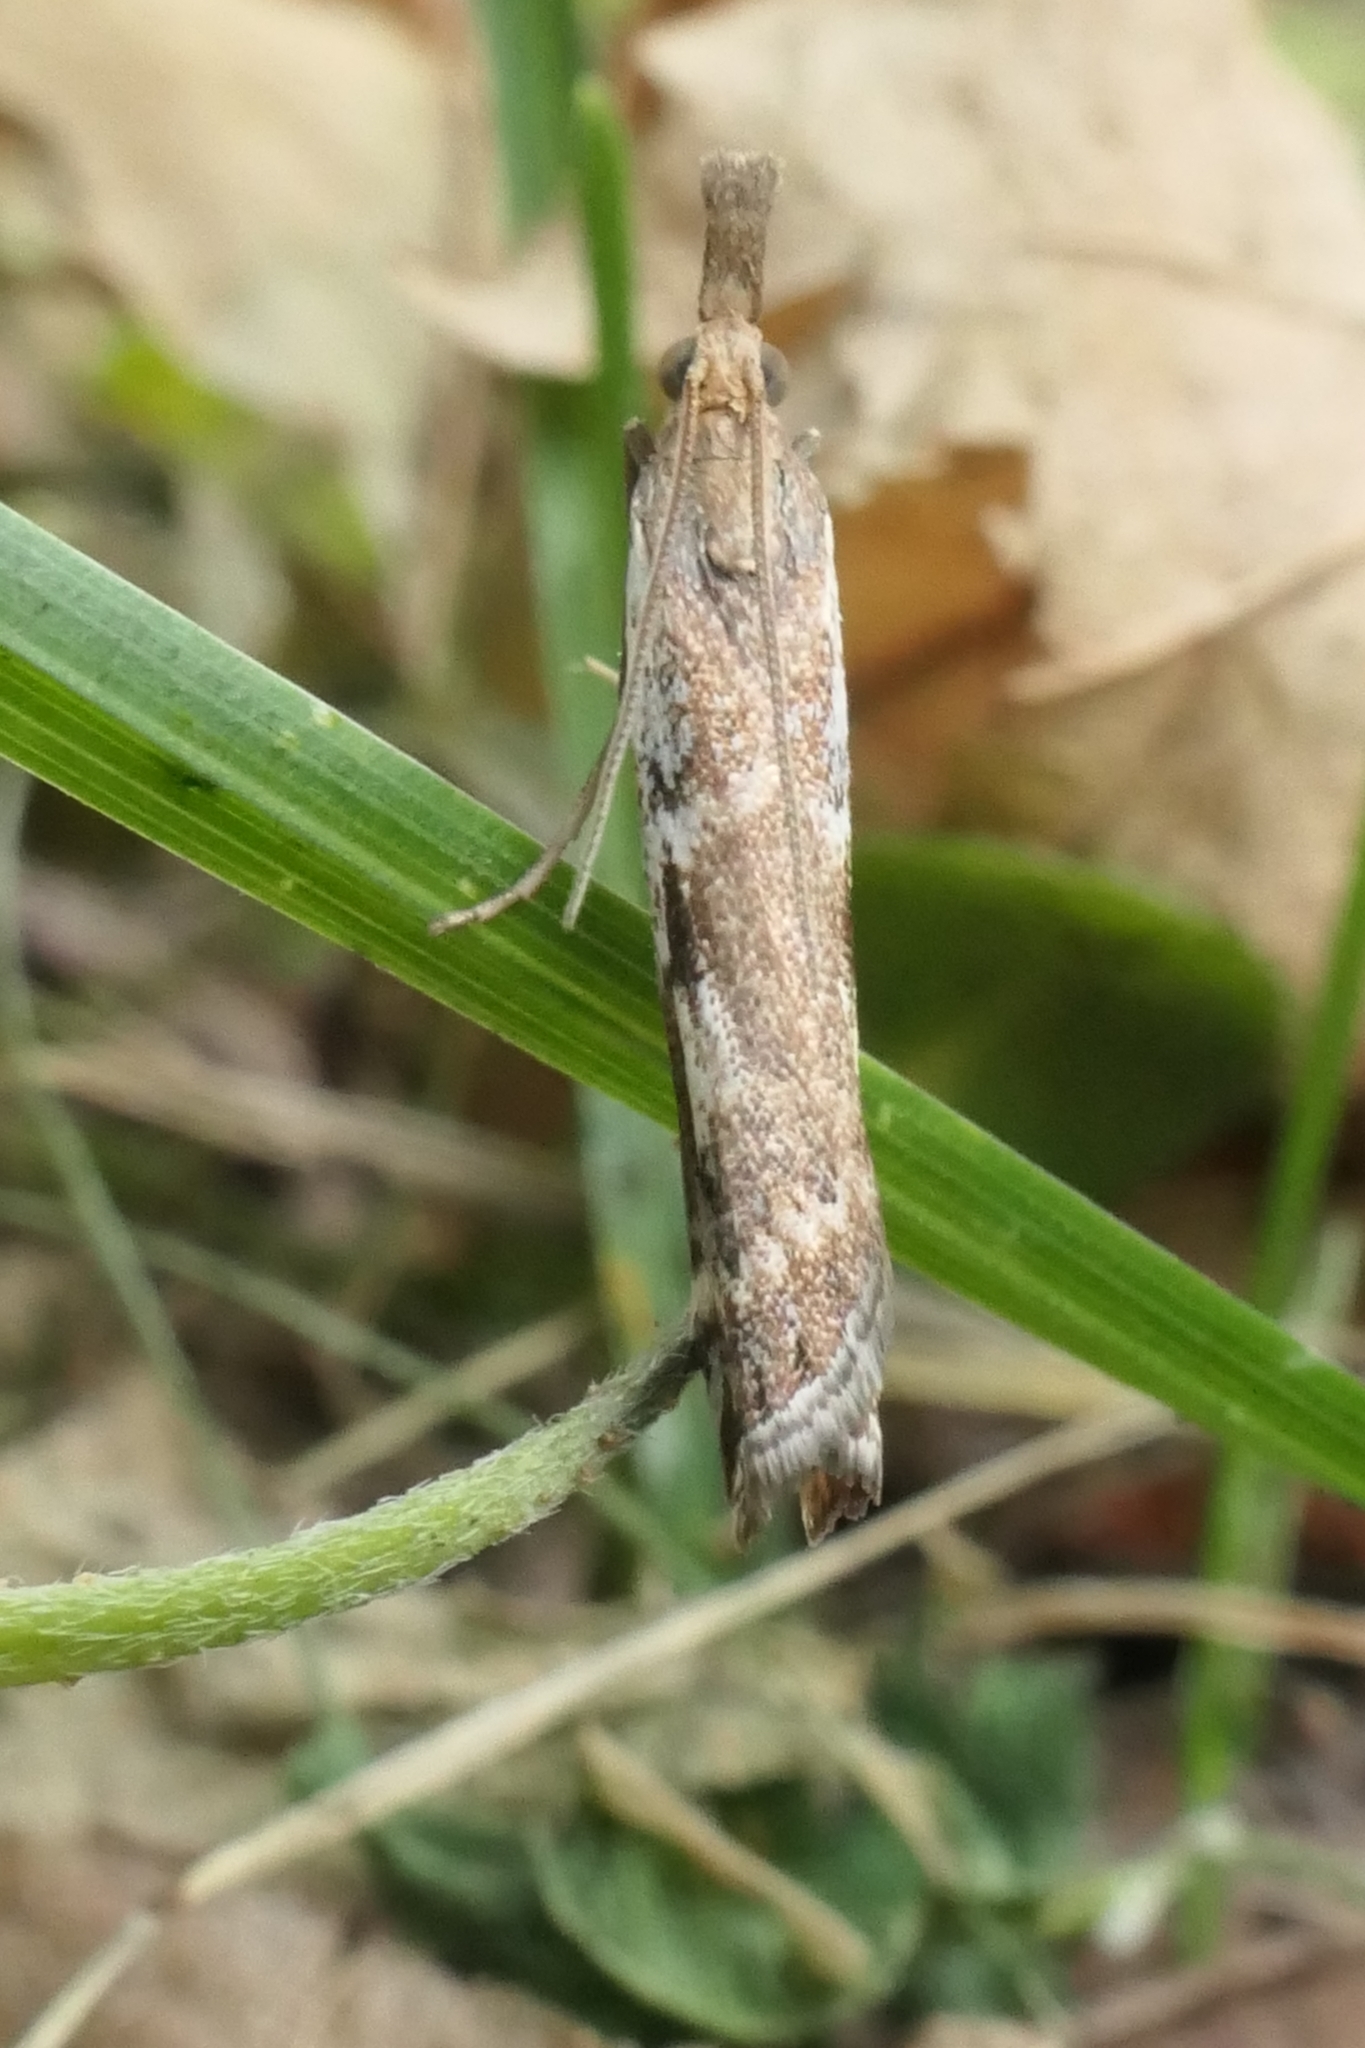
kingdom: Animalia
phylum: Arthropoda
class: Insecta
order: Lepidoptera
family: Crambidae
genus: Orocrambus
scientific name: Orocrambus vulgaris
